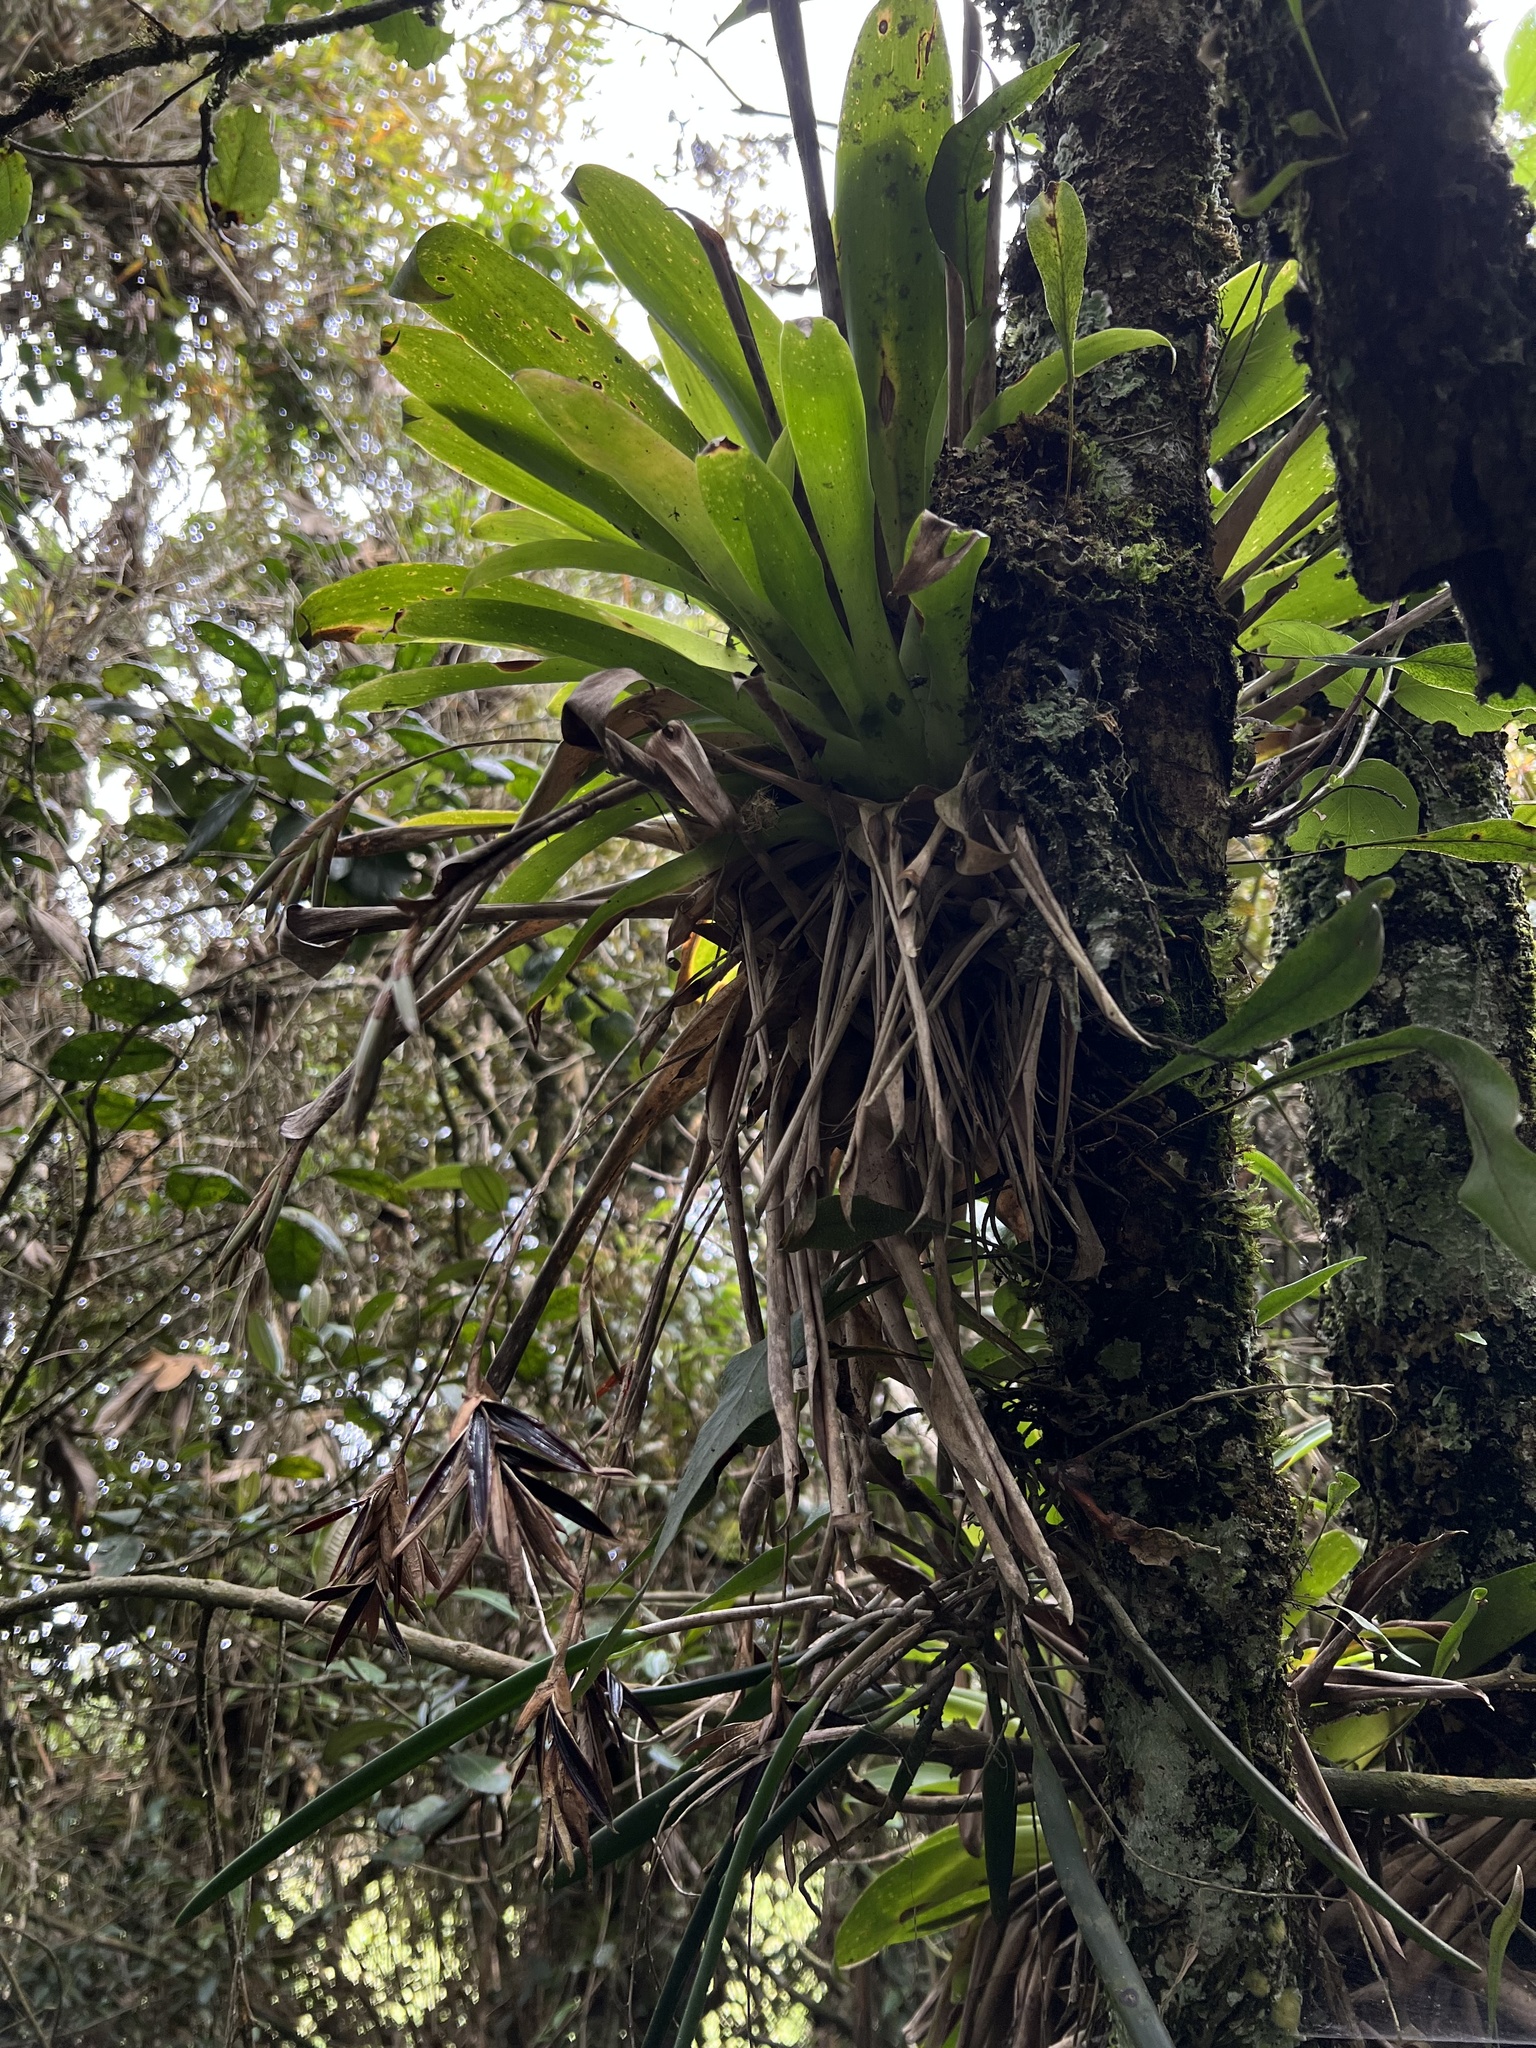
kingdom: Plantae
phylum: Tracheophyta
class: Liliopsida
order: Poales
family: Bromeliaceae
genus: Tillandsia
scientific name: Tillandsia complanata
